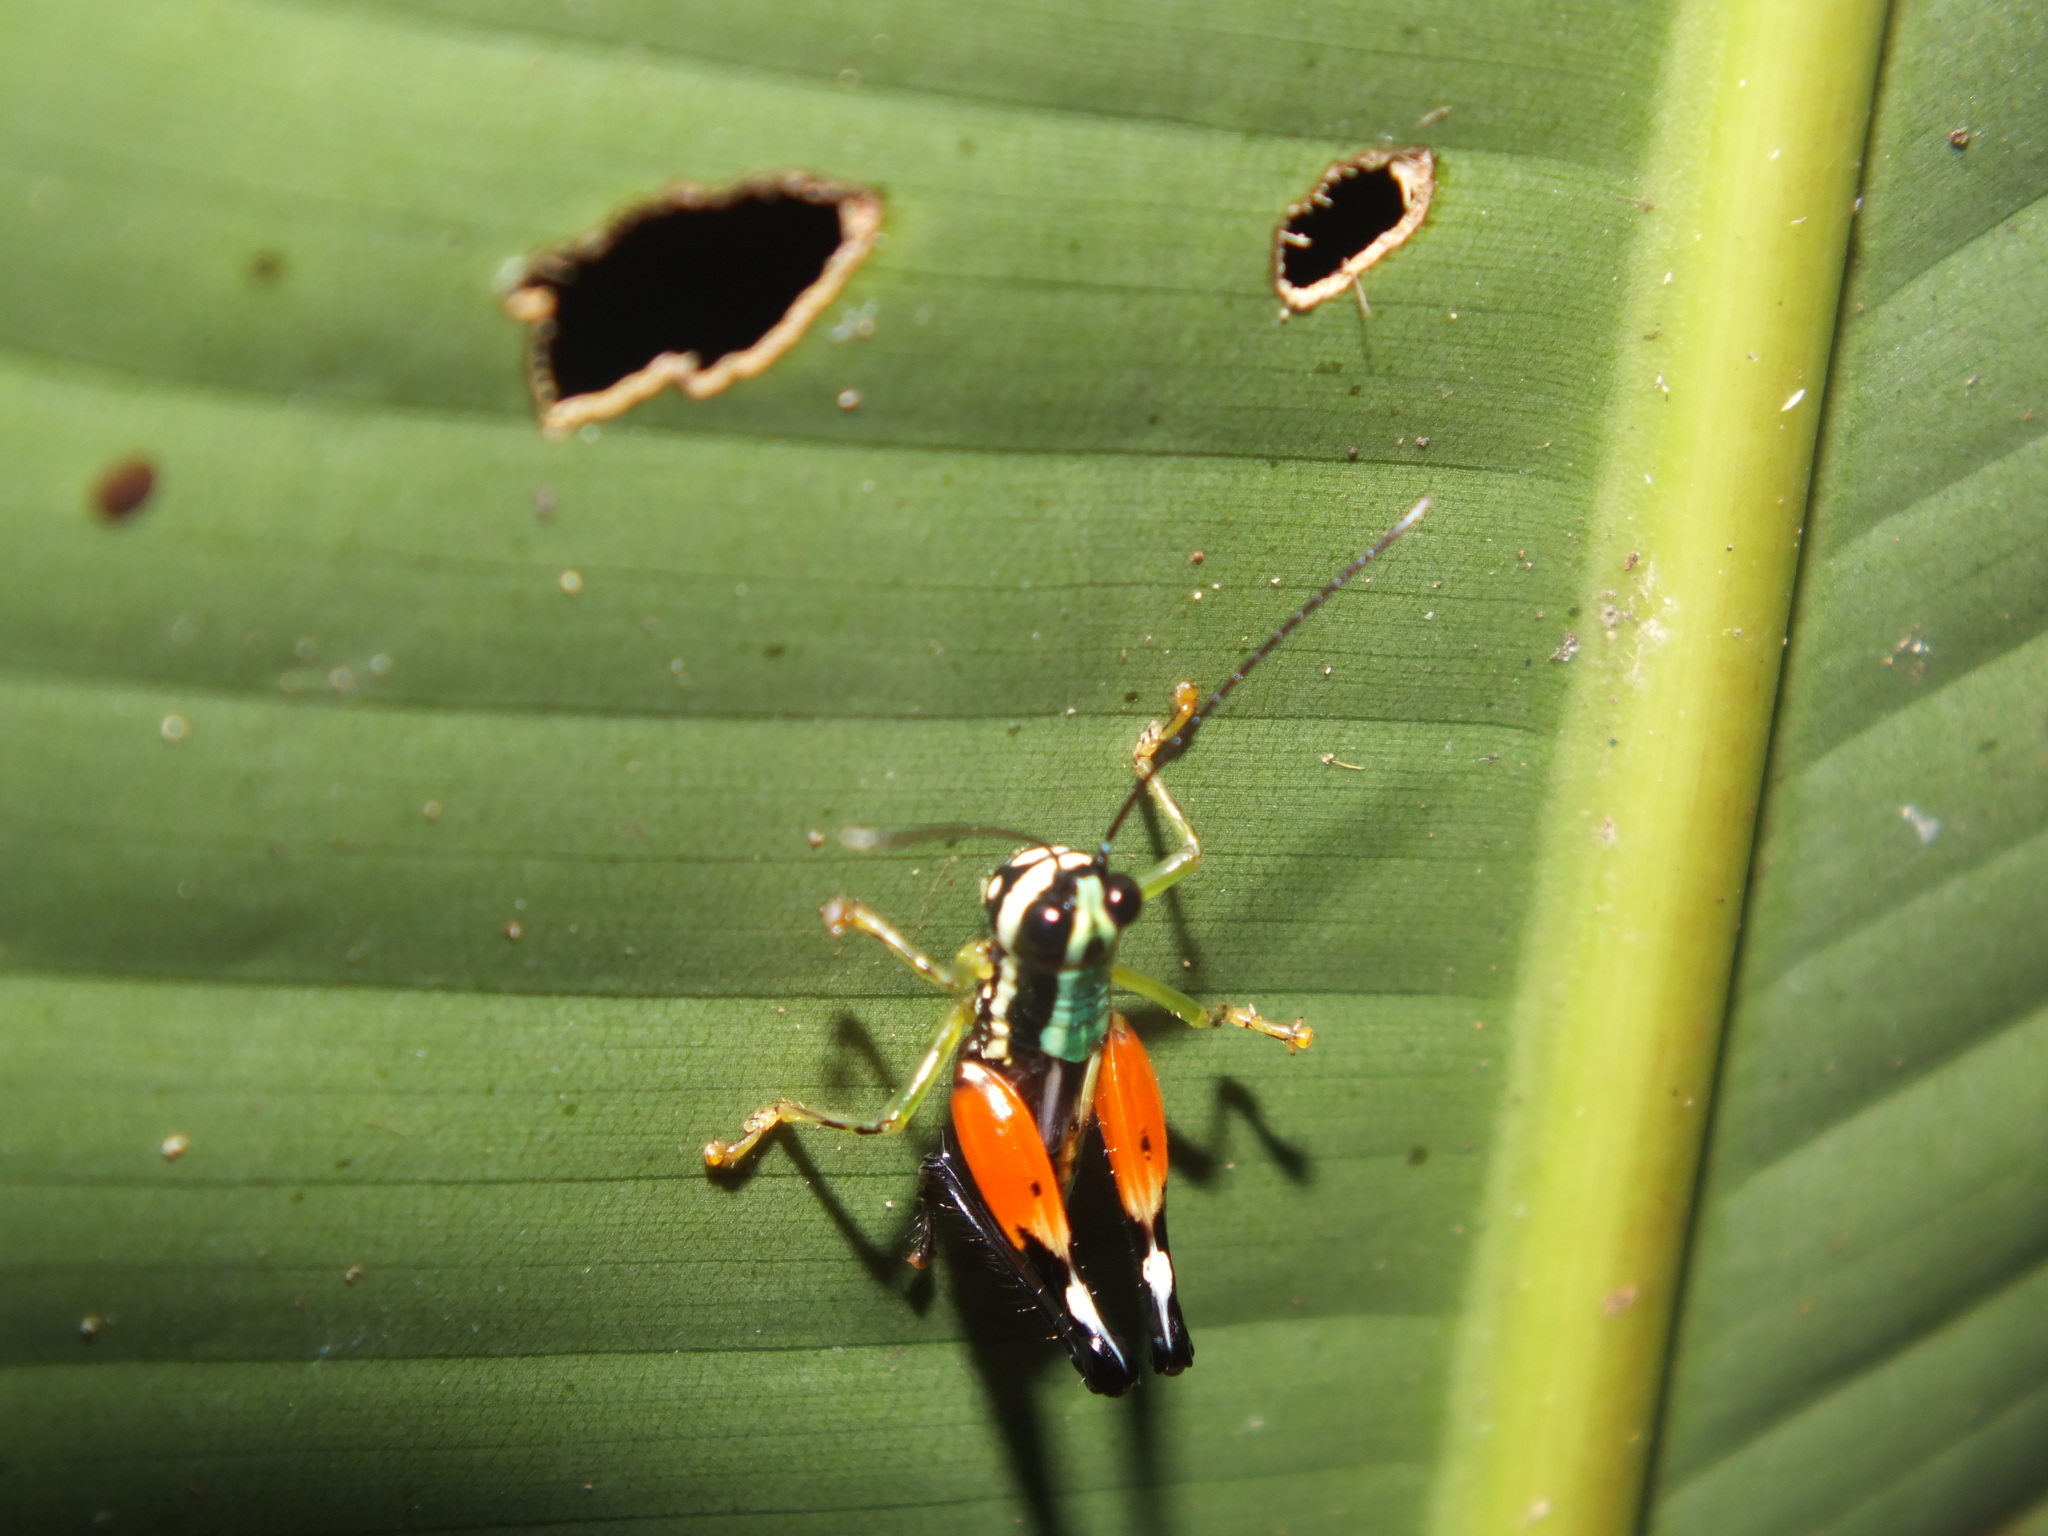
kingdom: Animalia
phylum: Arthropoda
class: Insecta
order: Orthoptera
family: Acrididae
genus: Nadiacris
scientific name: Nadiacris nitidula
